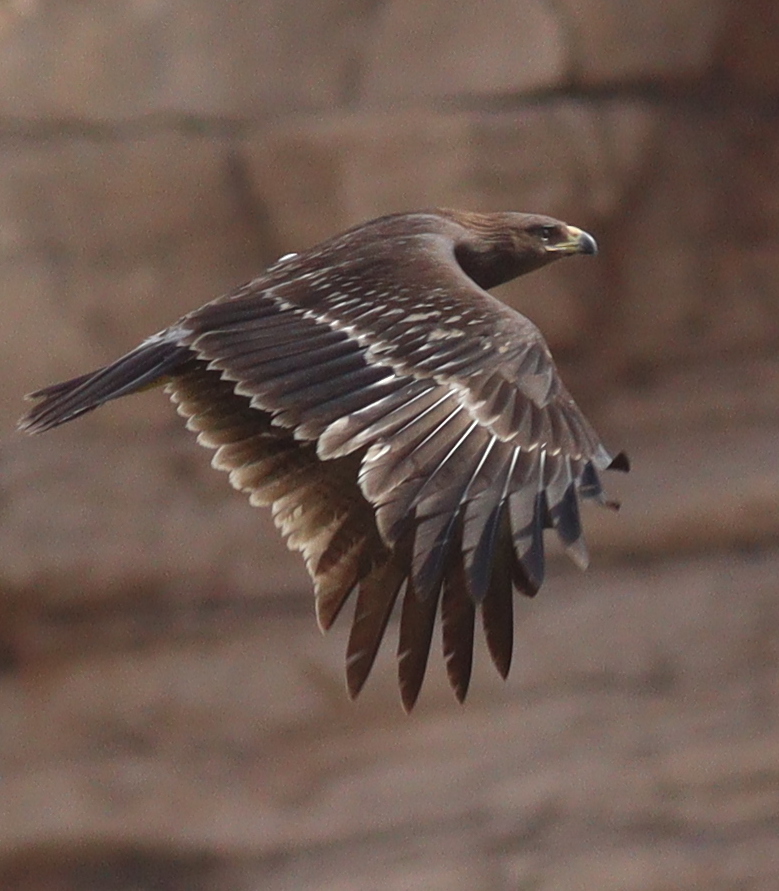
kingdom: Animalia
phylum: Chordata
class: Aves
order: Accipitriformes
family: Accipitridae
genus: Aquila
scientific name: Aquila clanga
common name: Greater spotted eagle
